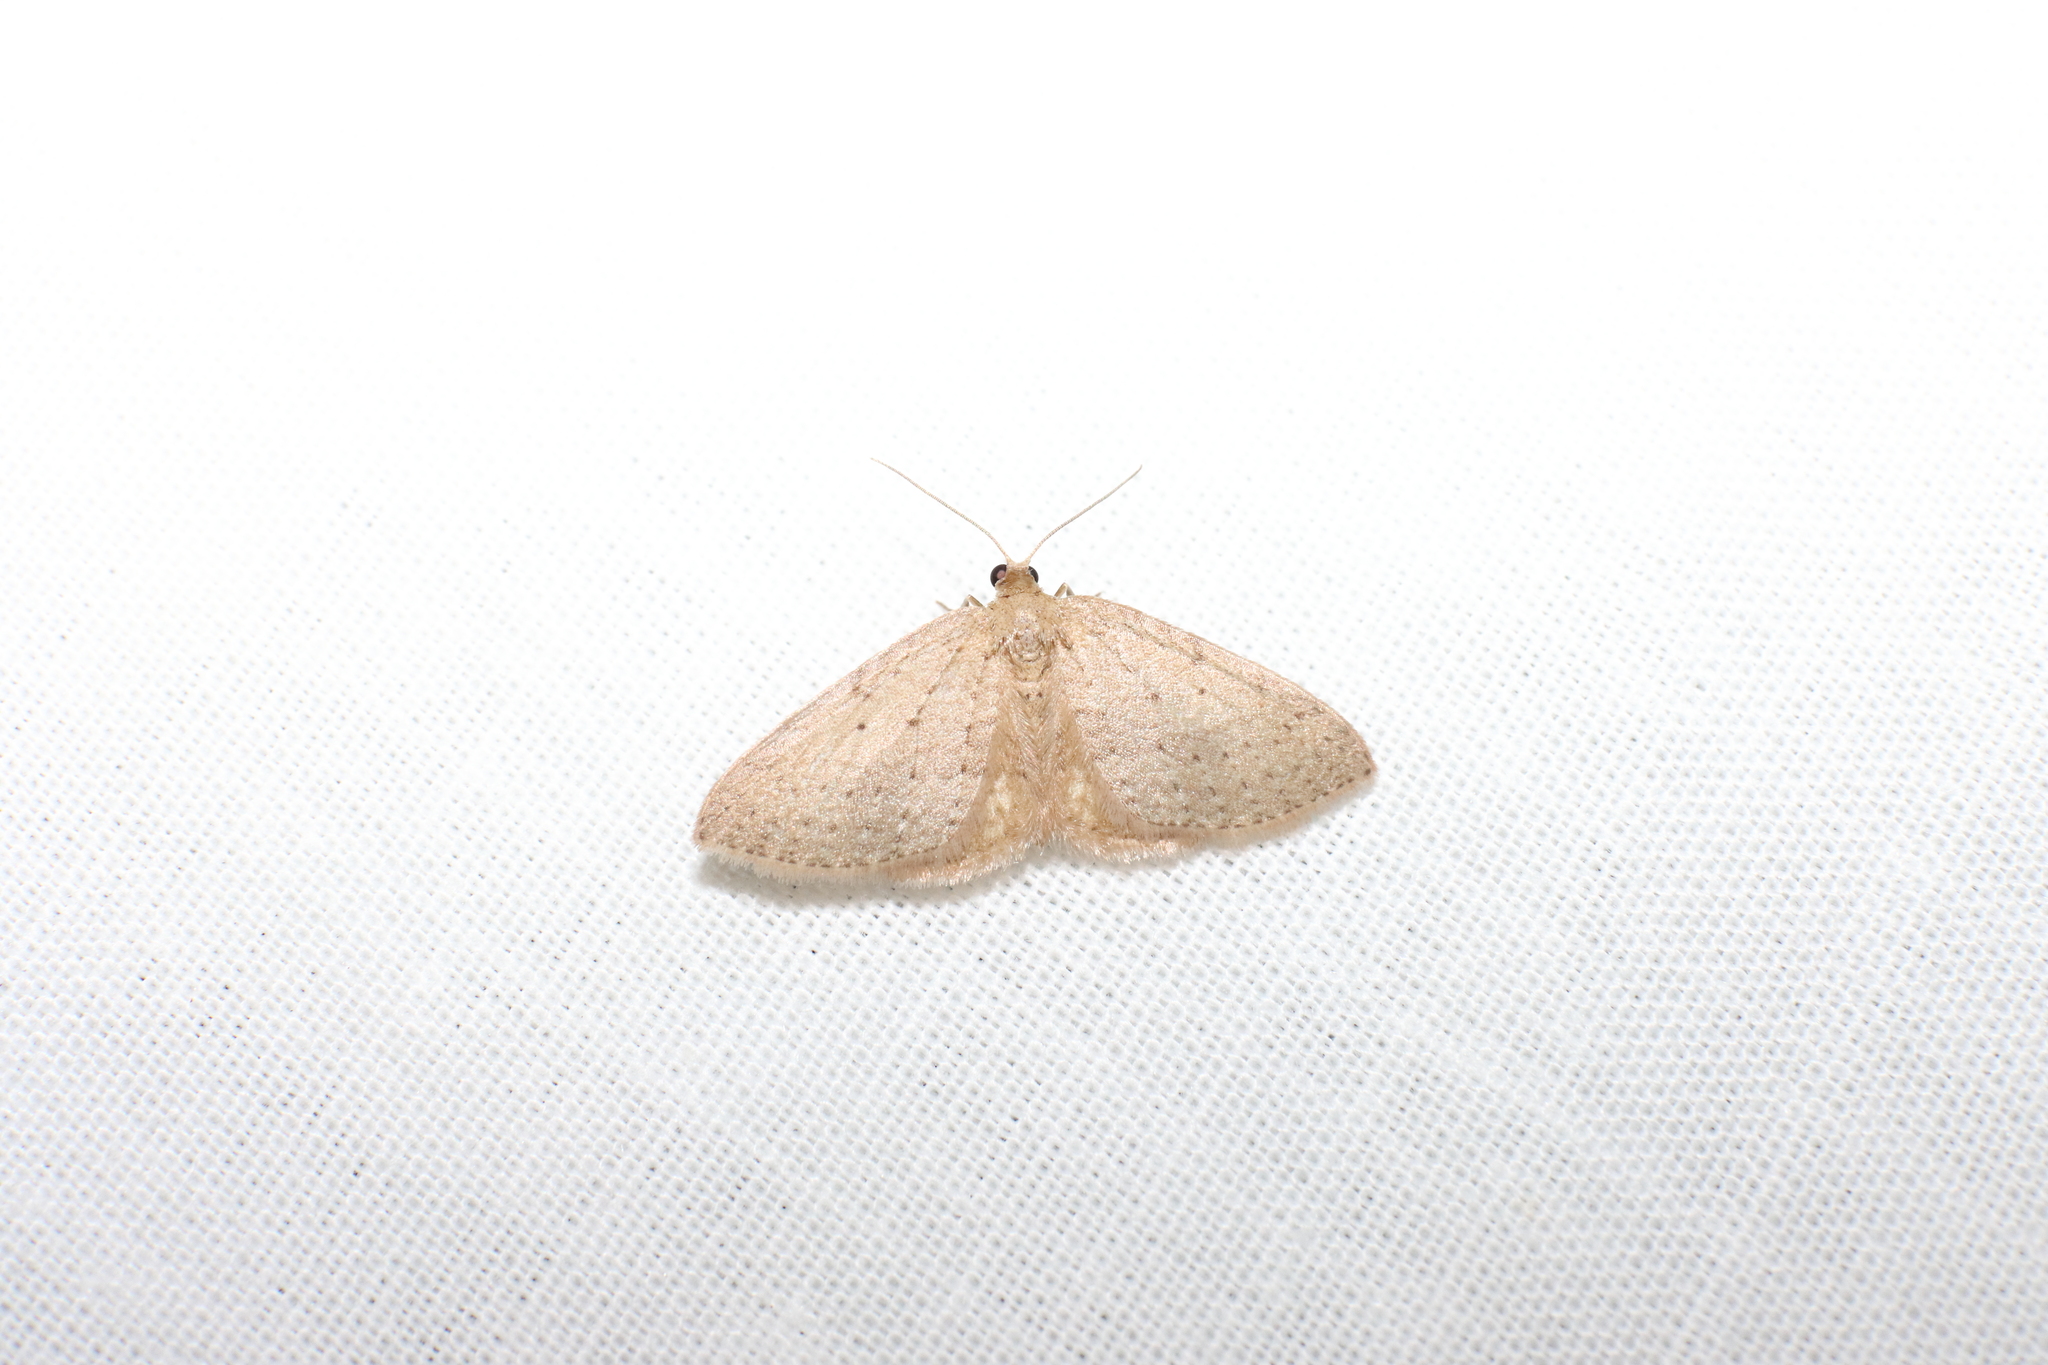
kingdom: Animalia
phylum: Arthropoda
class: Insecta
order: Lepidoptera
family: Geometridae
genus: Poecilasthena
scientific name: Poecilasthena schistaria
